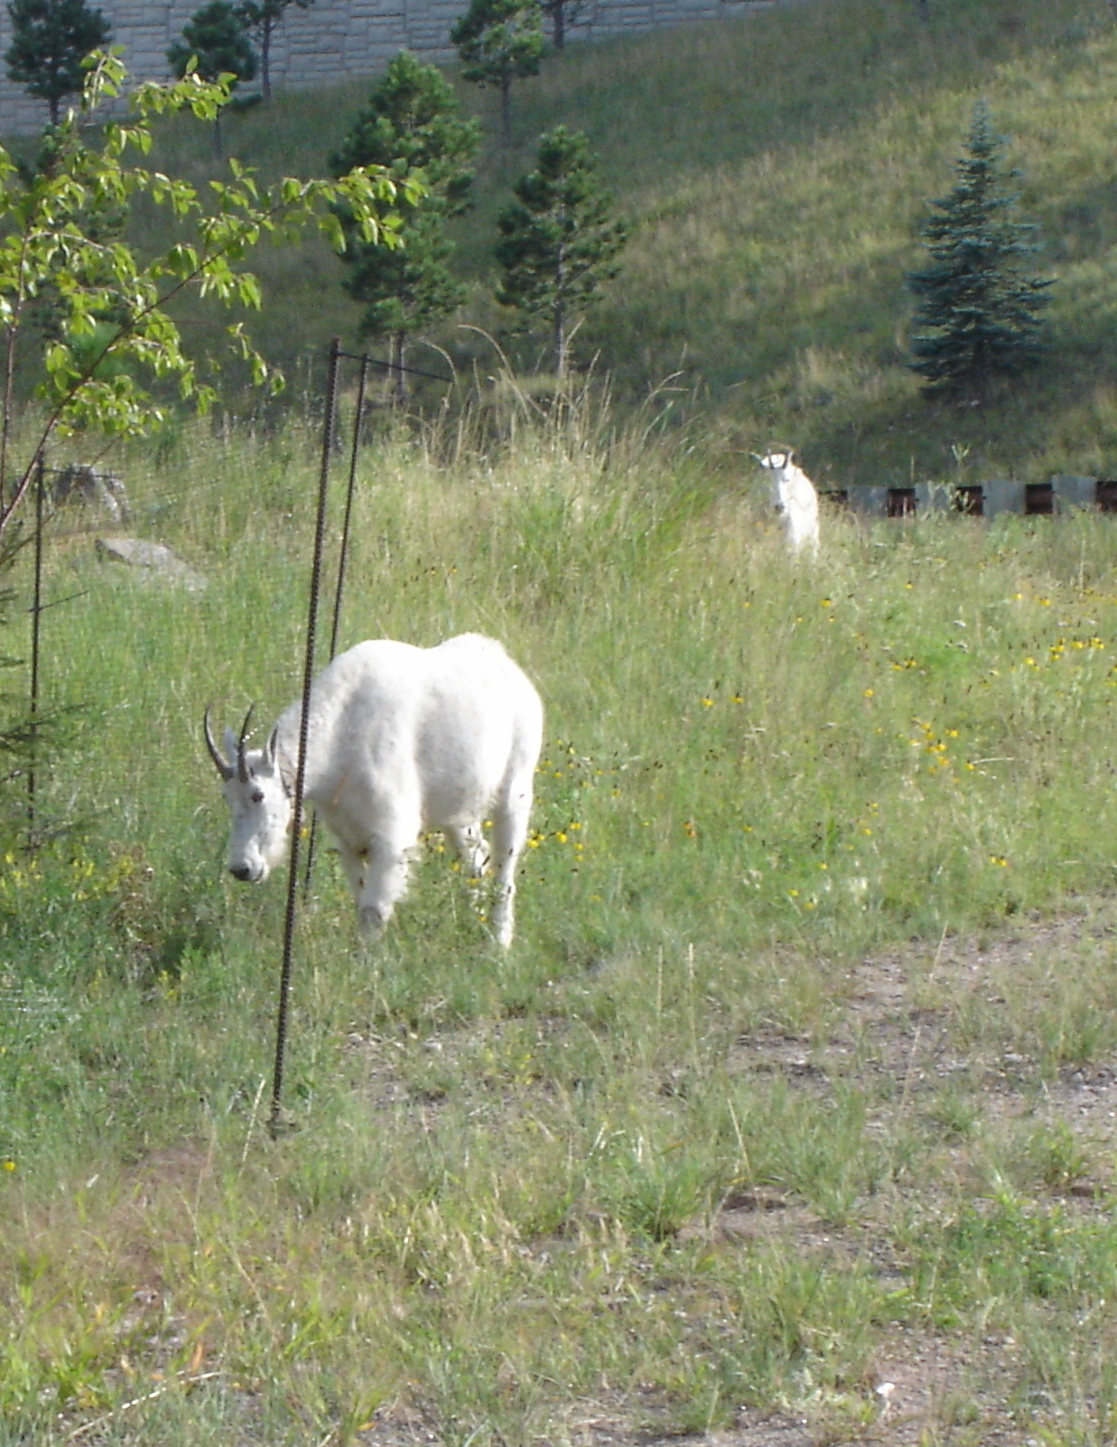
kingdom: Animalia
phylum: Chordata
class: Mammalia
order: Artiodactyla
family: Bovidae
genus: Oreamnos
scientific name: Oreamnos americanus
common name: Mountain goat
